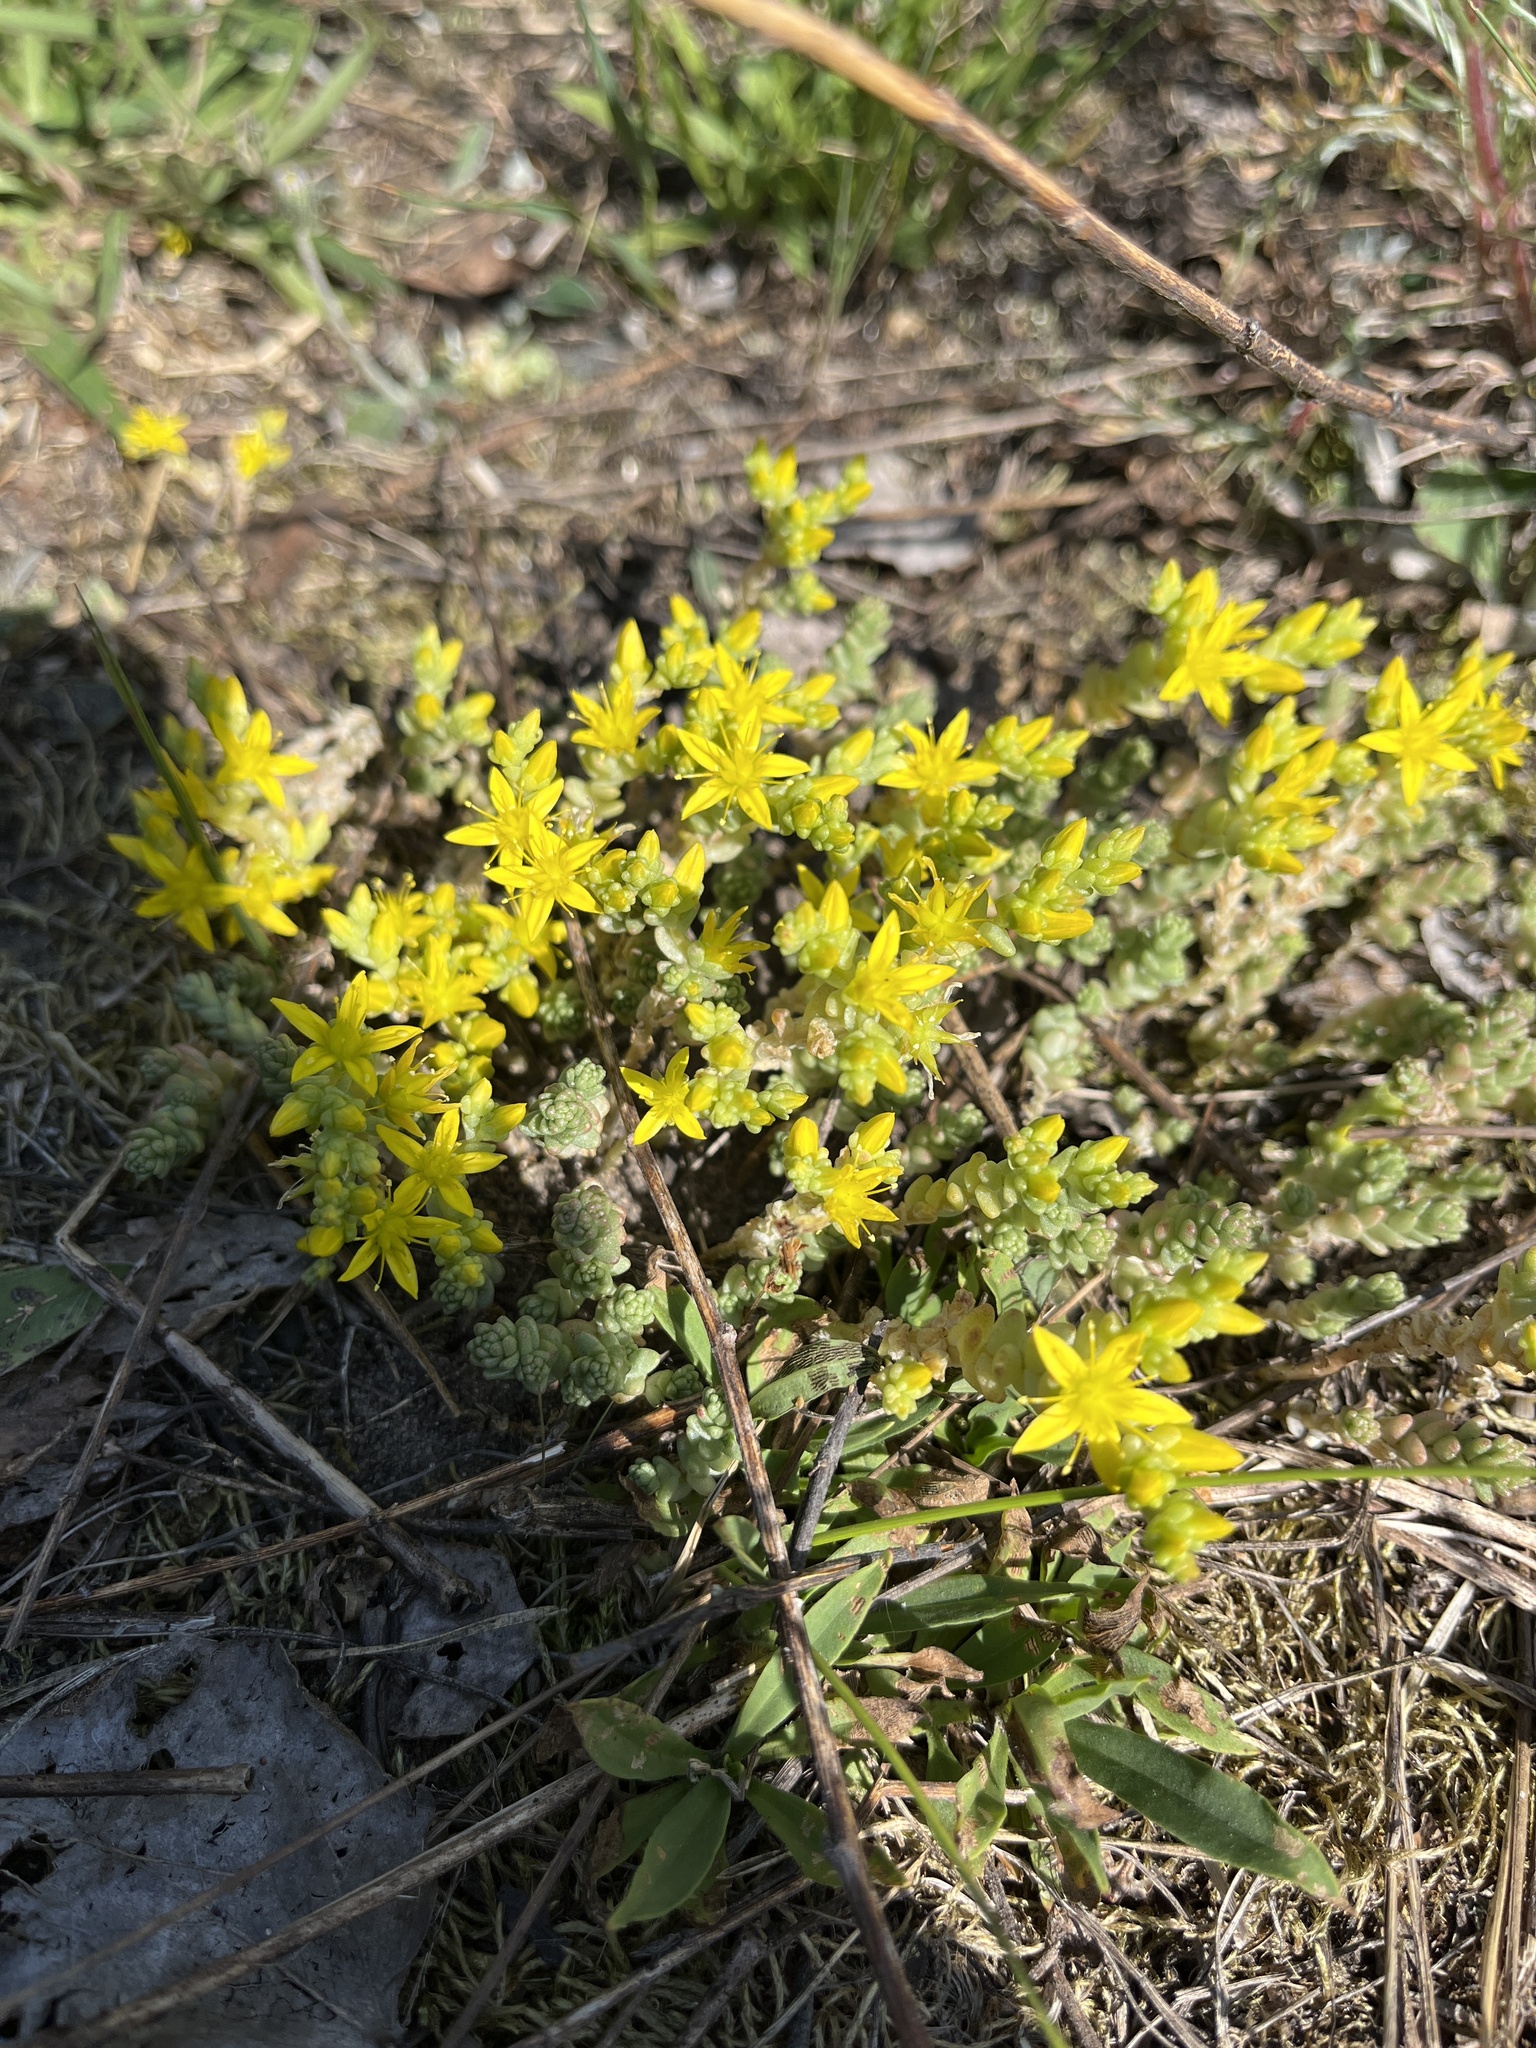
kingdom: Plantae
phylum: Tracheophyta
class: Magnoliopsida
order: Saxifragales
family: Crassulaceae
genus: Sedum
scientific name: Sedum acre
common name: Biting stonecrop
